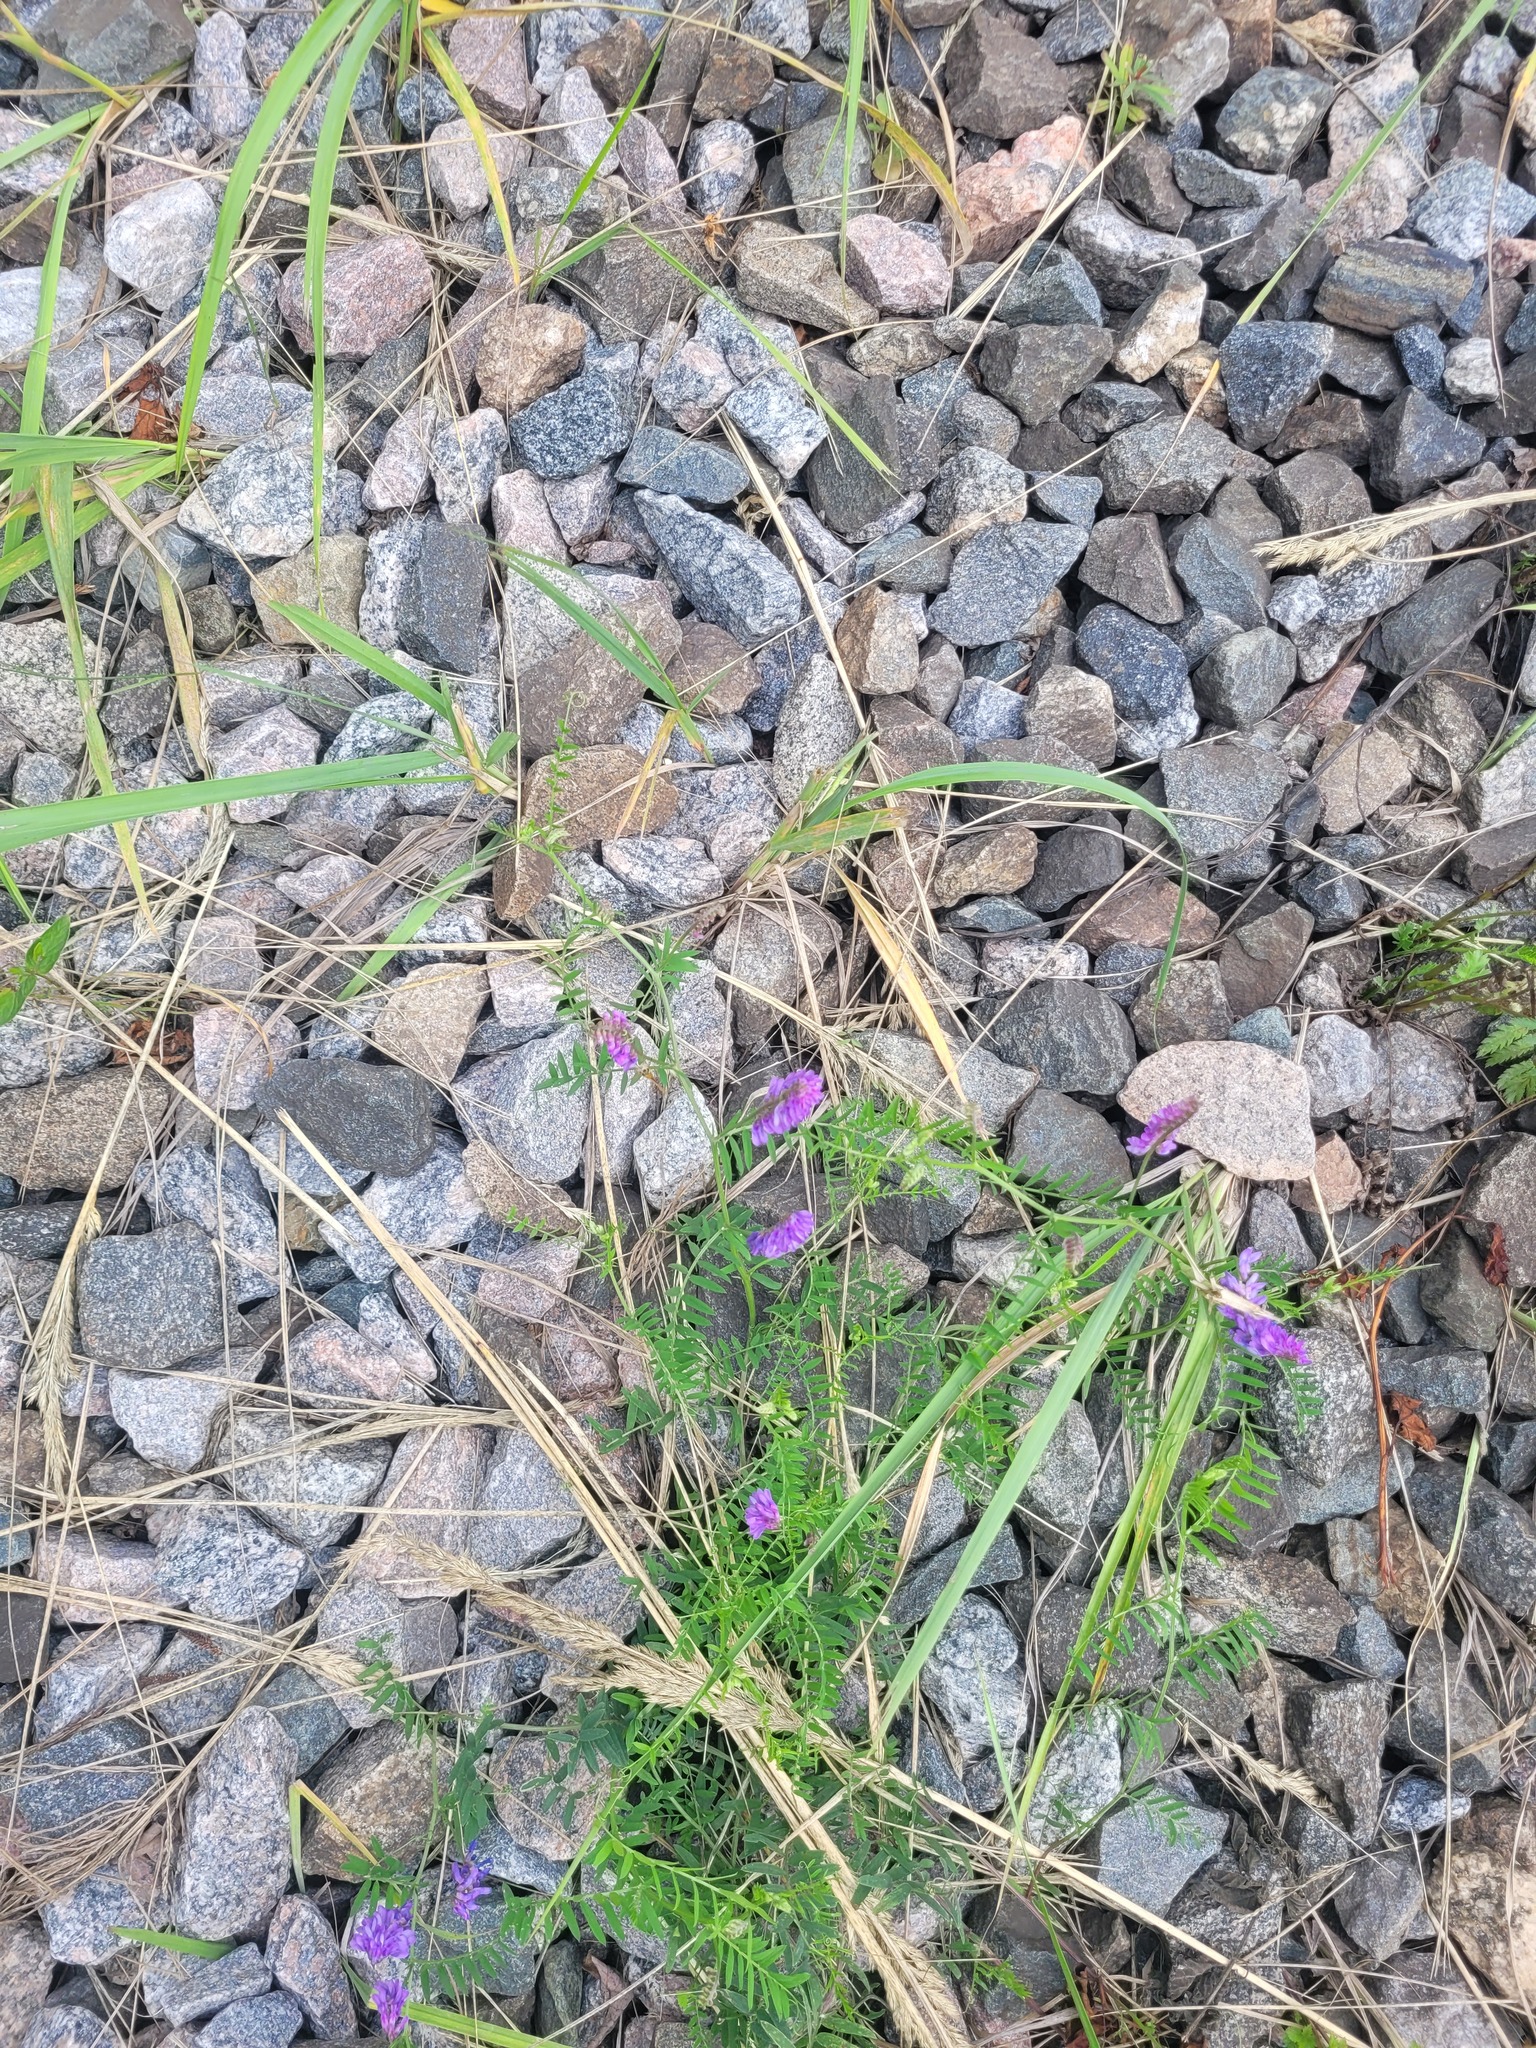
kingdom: Plantae
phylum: Tracheophyta
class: Magnoliopsida
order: Fabales
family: Fabaceae
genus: Vicia
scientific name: Vicia cracca
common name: Bird vetch
